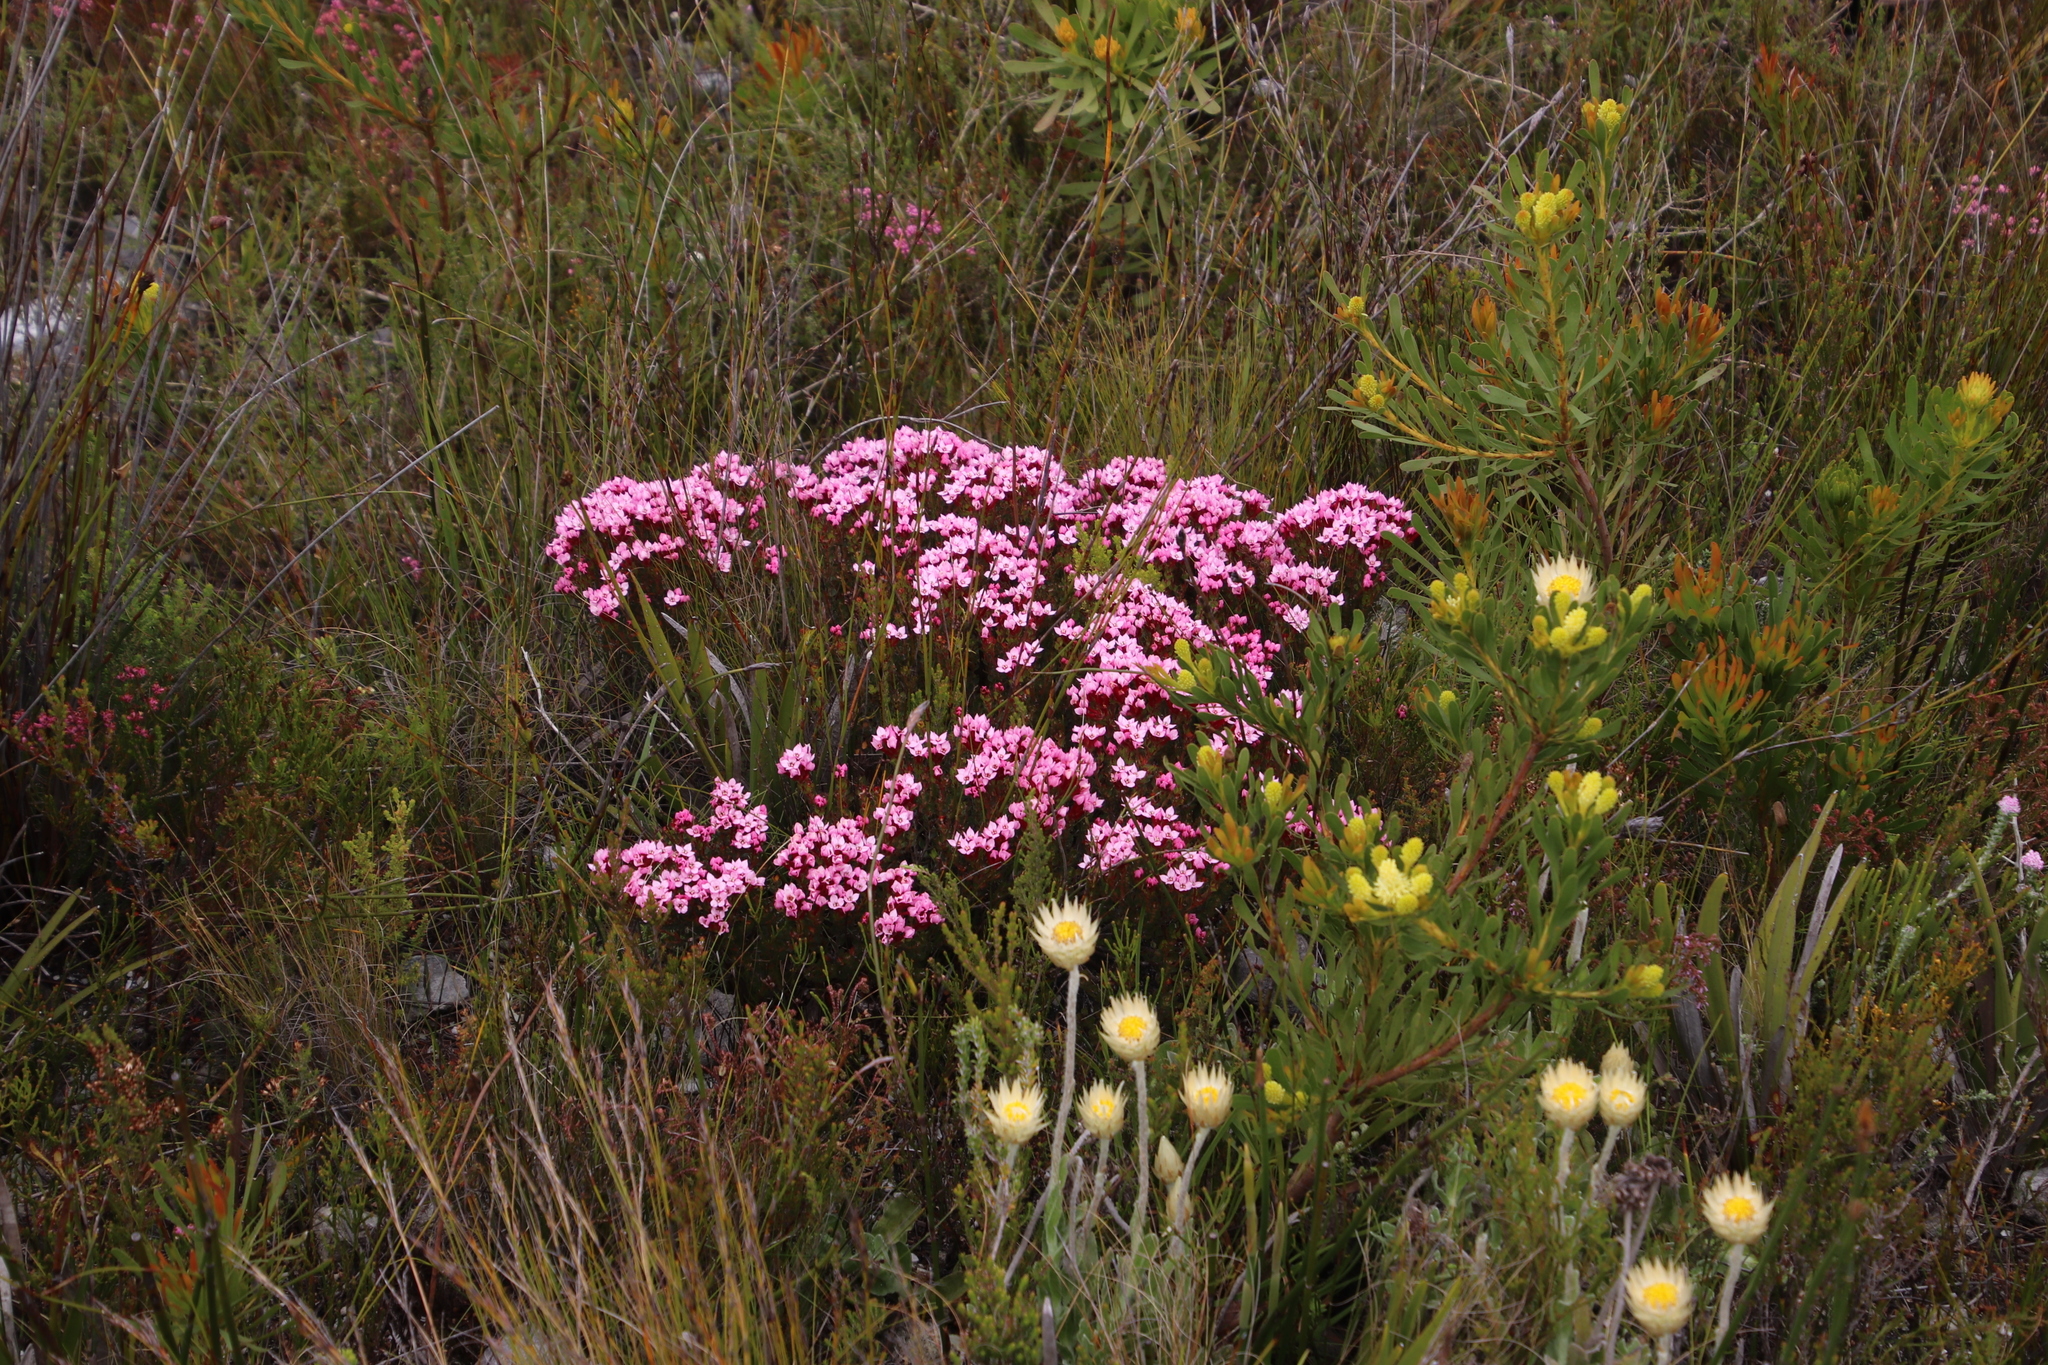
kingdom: Plantae
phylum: Tracheophyta
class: Magnoliopsida
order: Myrtales
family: Penaeaceae
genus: Brachysiphon
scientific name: Brachysiphon acutus
